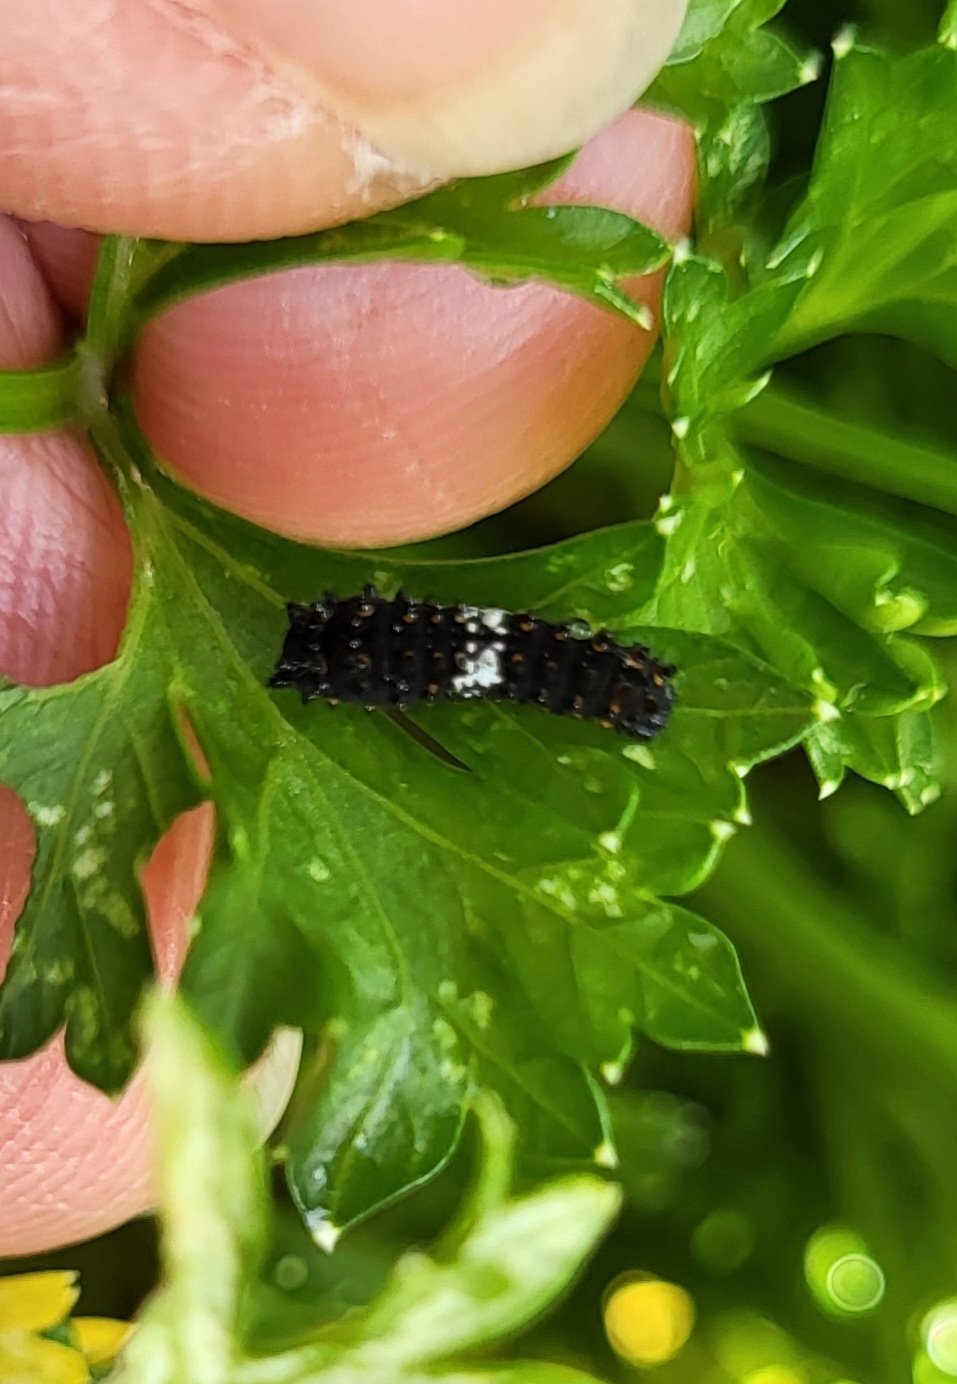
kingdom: Animalia
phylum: Arthropoda
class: Insecta
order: Lepidoptera
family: Papilionidae
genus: Papilio
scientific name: Papilio polyxenes
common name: Black swallowtail
